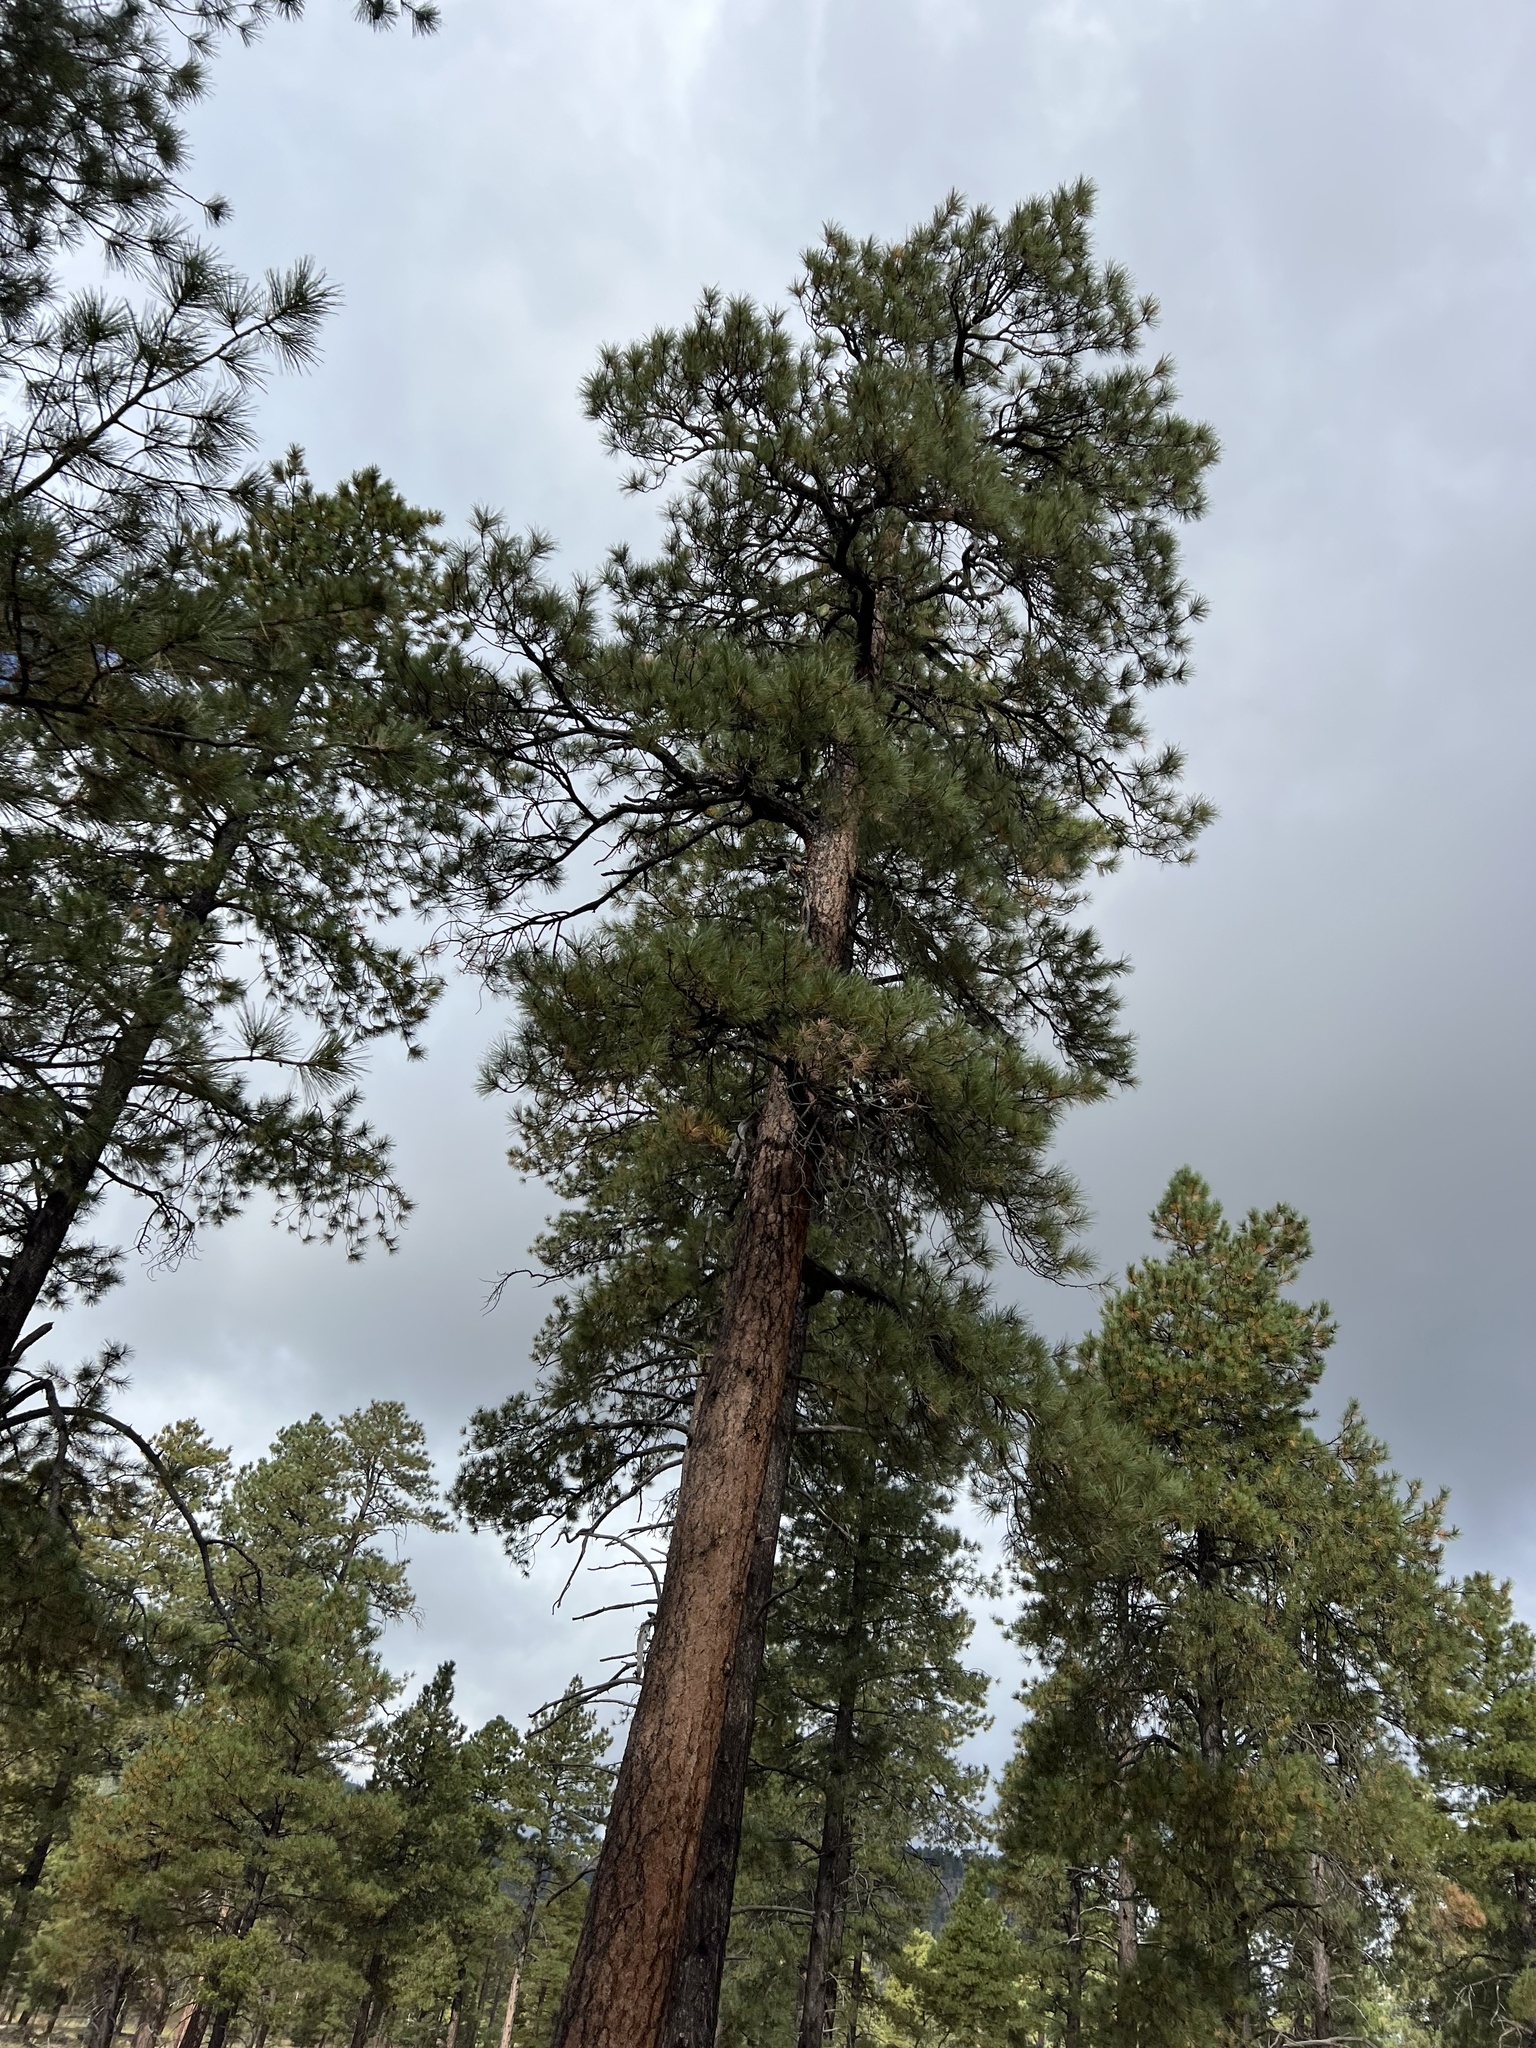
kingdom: Plantae
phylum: Tracheophyta
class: Pinopsida
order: Pinales
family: Pinaceae
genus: Pinus
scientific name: Pinus ponderosa
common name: Western yellow-pine
